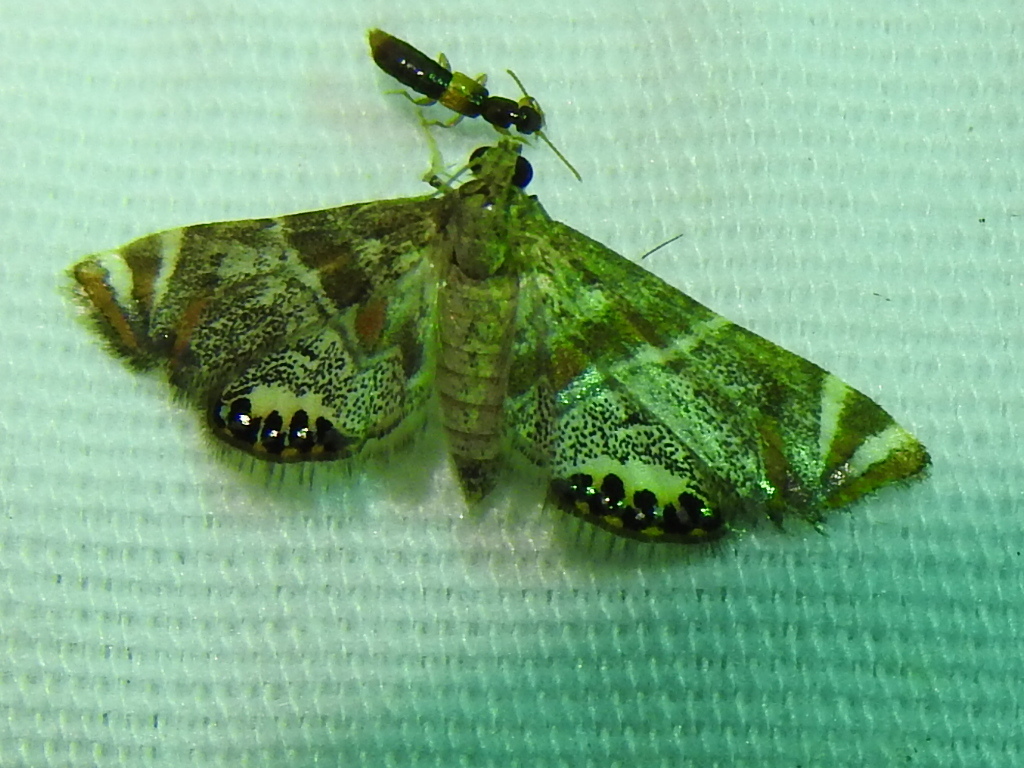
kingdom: Animalia
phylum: Arthropoda
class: Insecta
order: Lepidoptera
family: Crambidae
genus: Petrophila
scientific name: Petrophila jaliscalis
